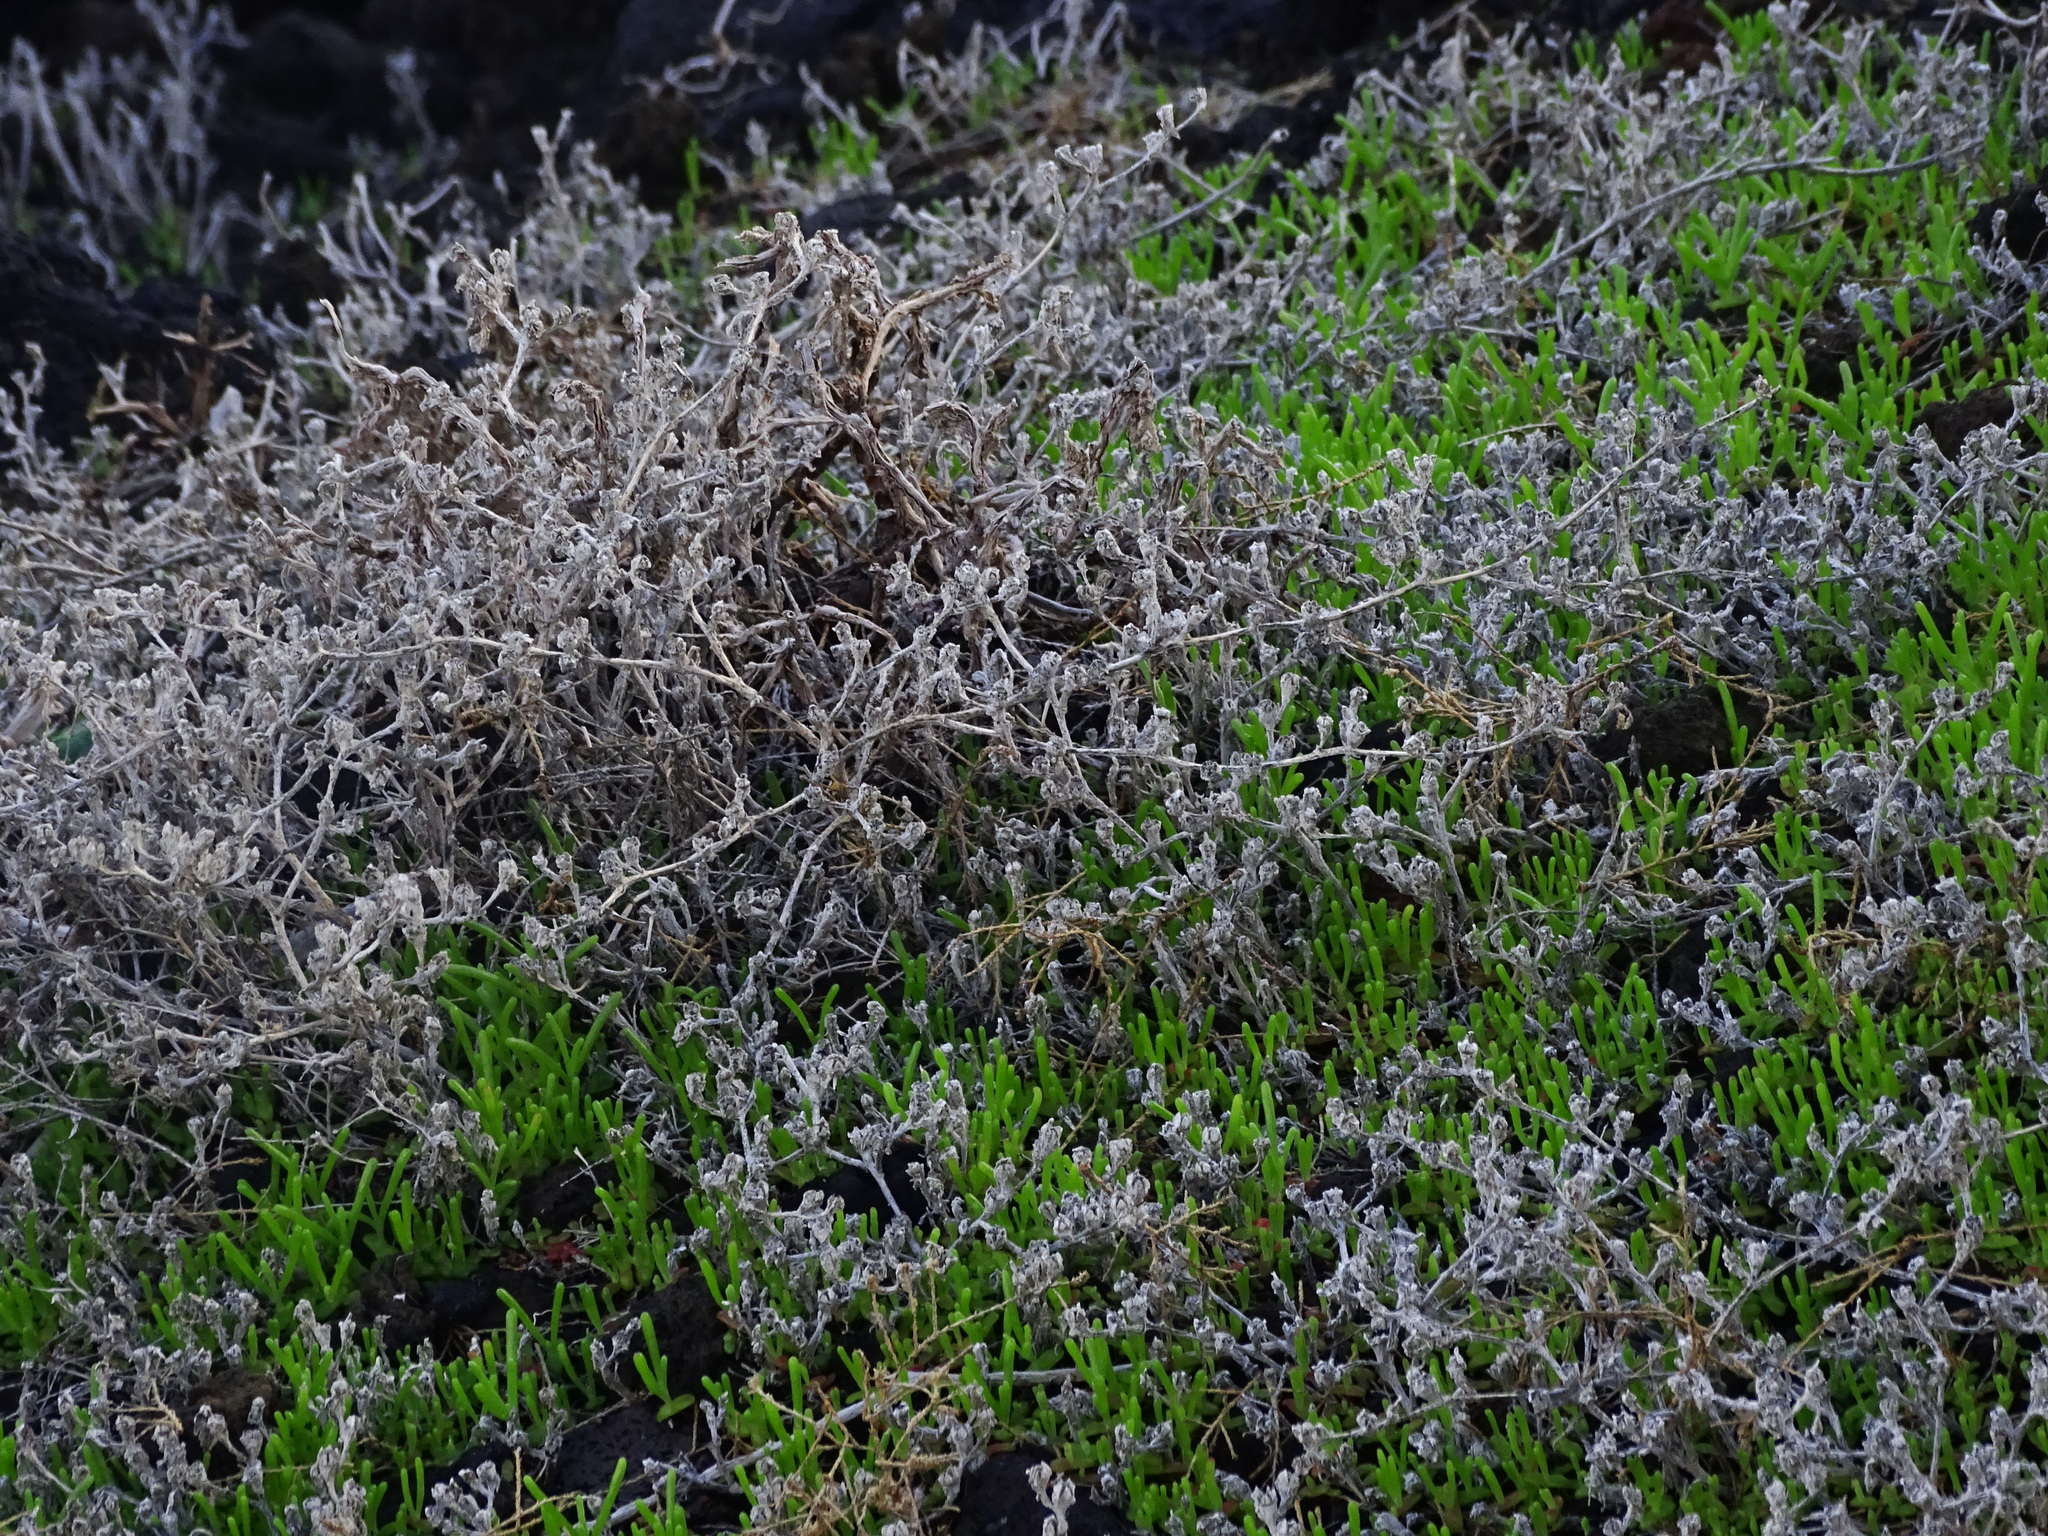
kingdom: Plantae
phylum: Tracheophyta
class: Magnoliopsida
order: Caryophyllales
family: Aizoaceae
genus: Mesembryanthemum
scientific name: Mesembryanthemum nodiflorum
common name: Slenderleaf iceplant
